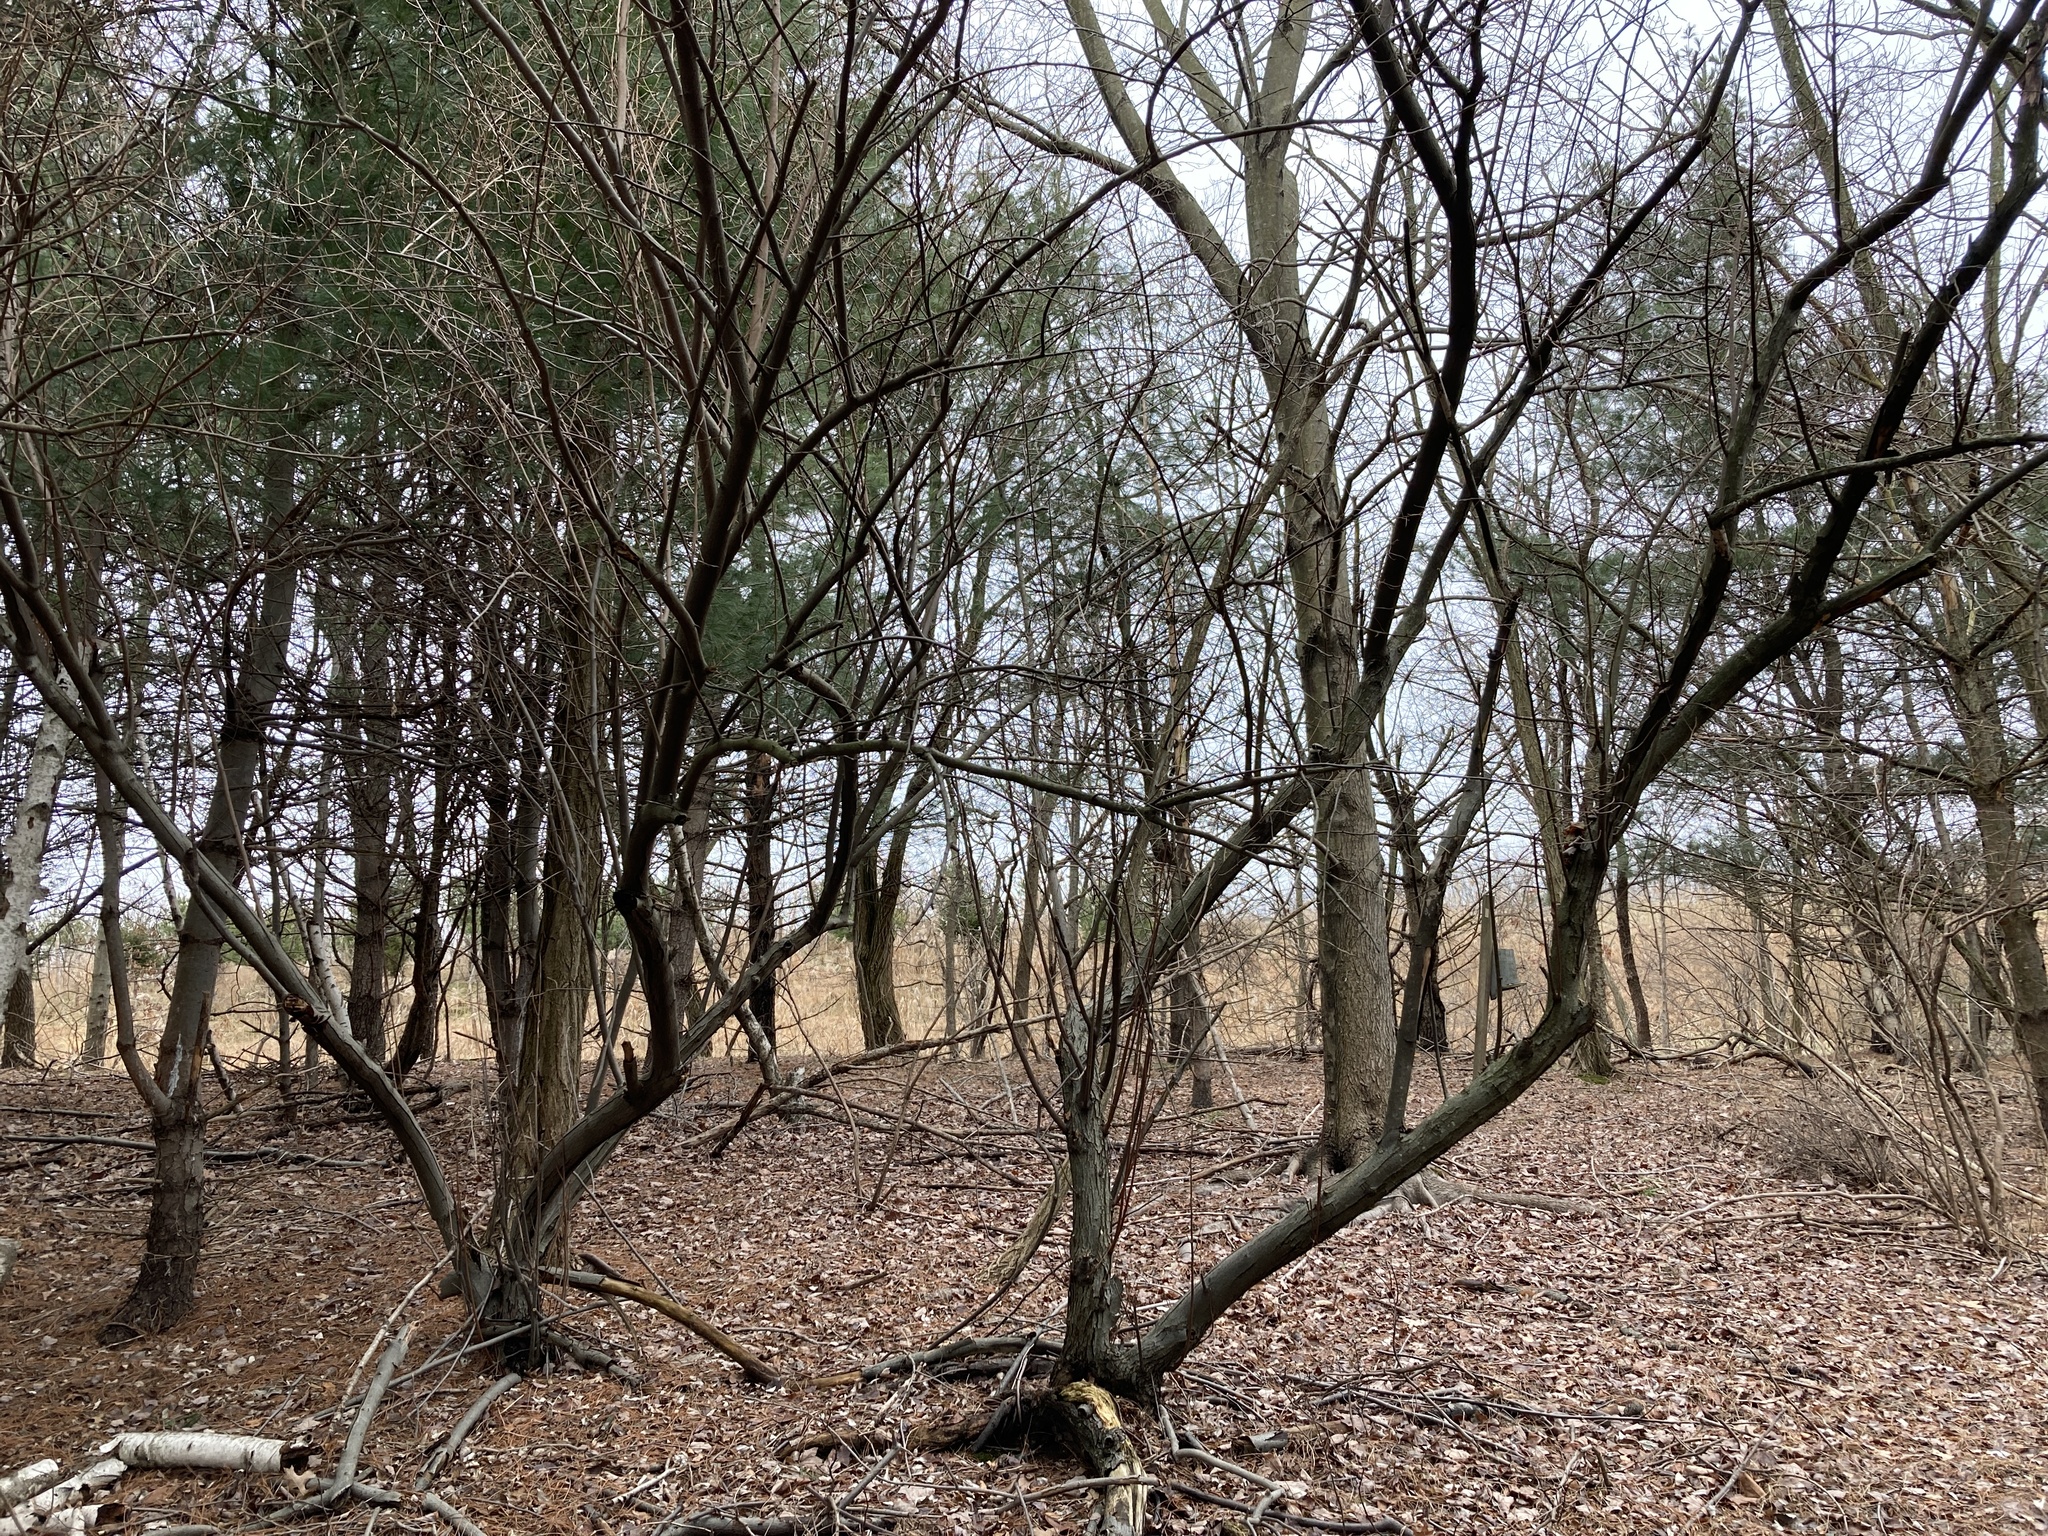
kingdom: Plantae
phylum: Tracheophyta
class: Magnoliopsida
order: Rosales
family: Elaeagnaceae
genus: Elaeagnus
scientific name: Elaeagnus umbellata
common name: Autumn olive
